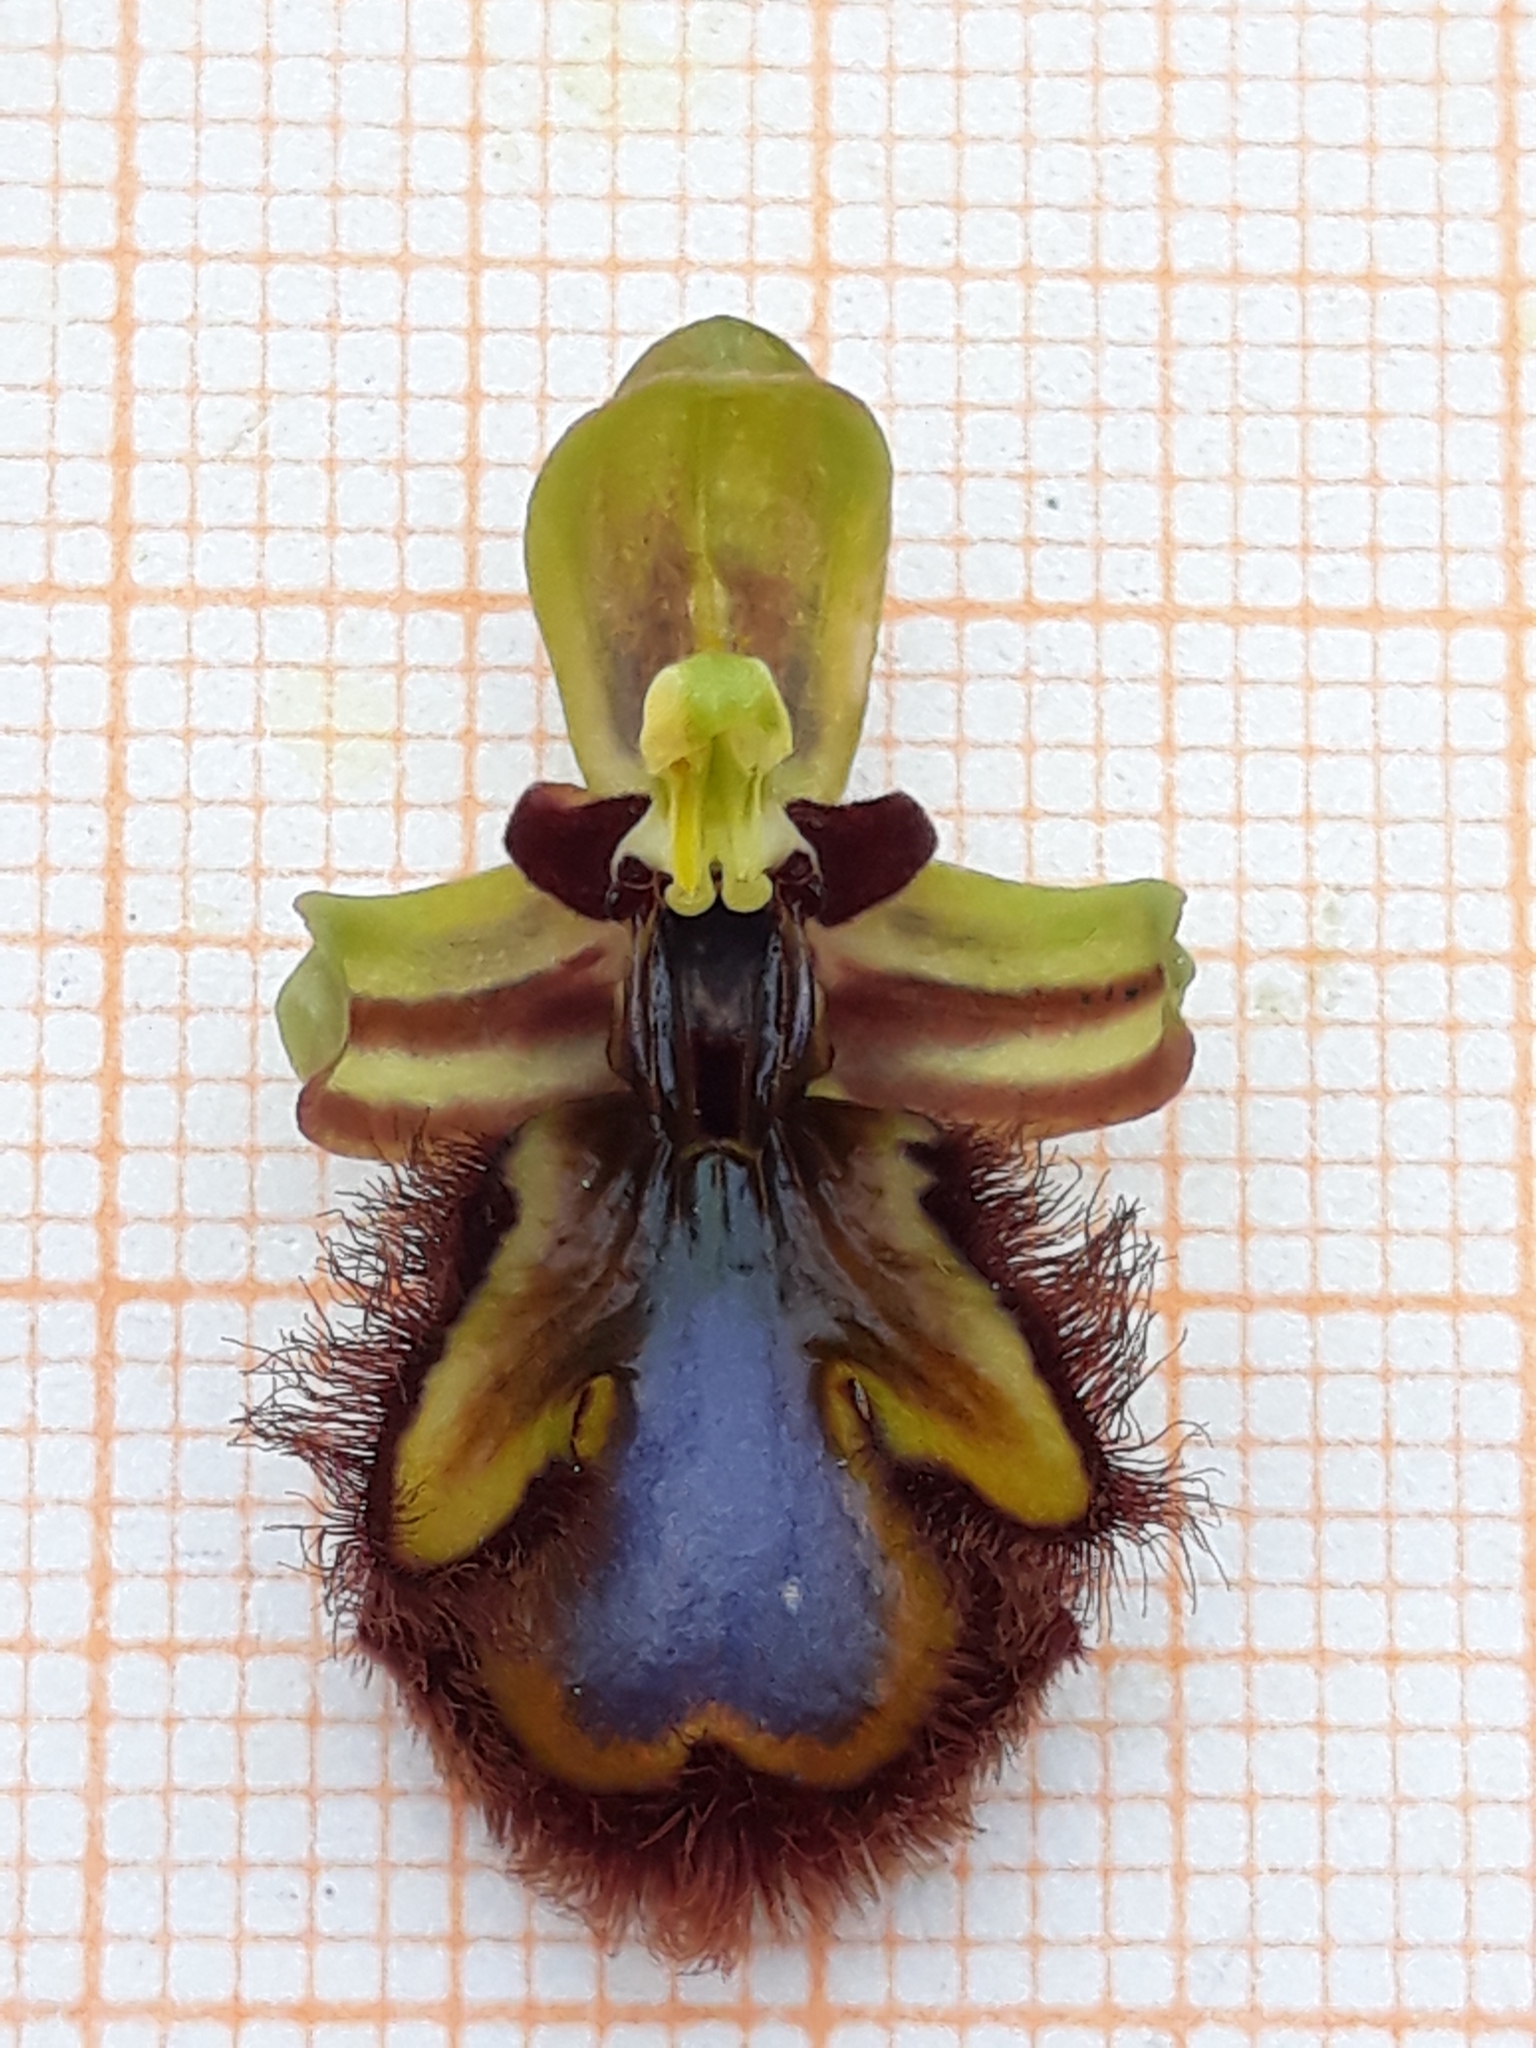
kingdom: Plantae
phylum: Tracheophyta
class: Liliopsida
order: Asparagales
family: Orchidaceae
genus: Ophrys
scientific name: Ophrys speculum
